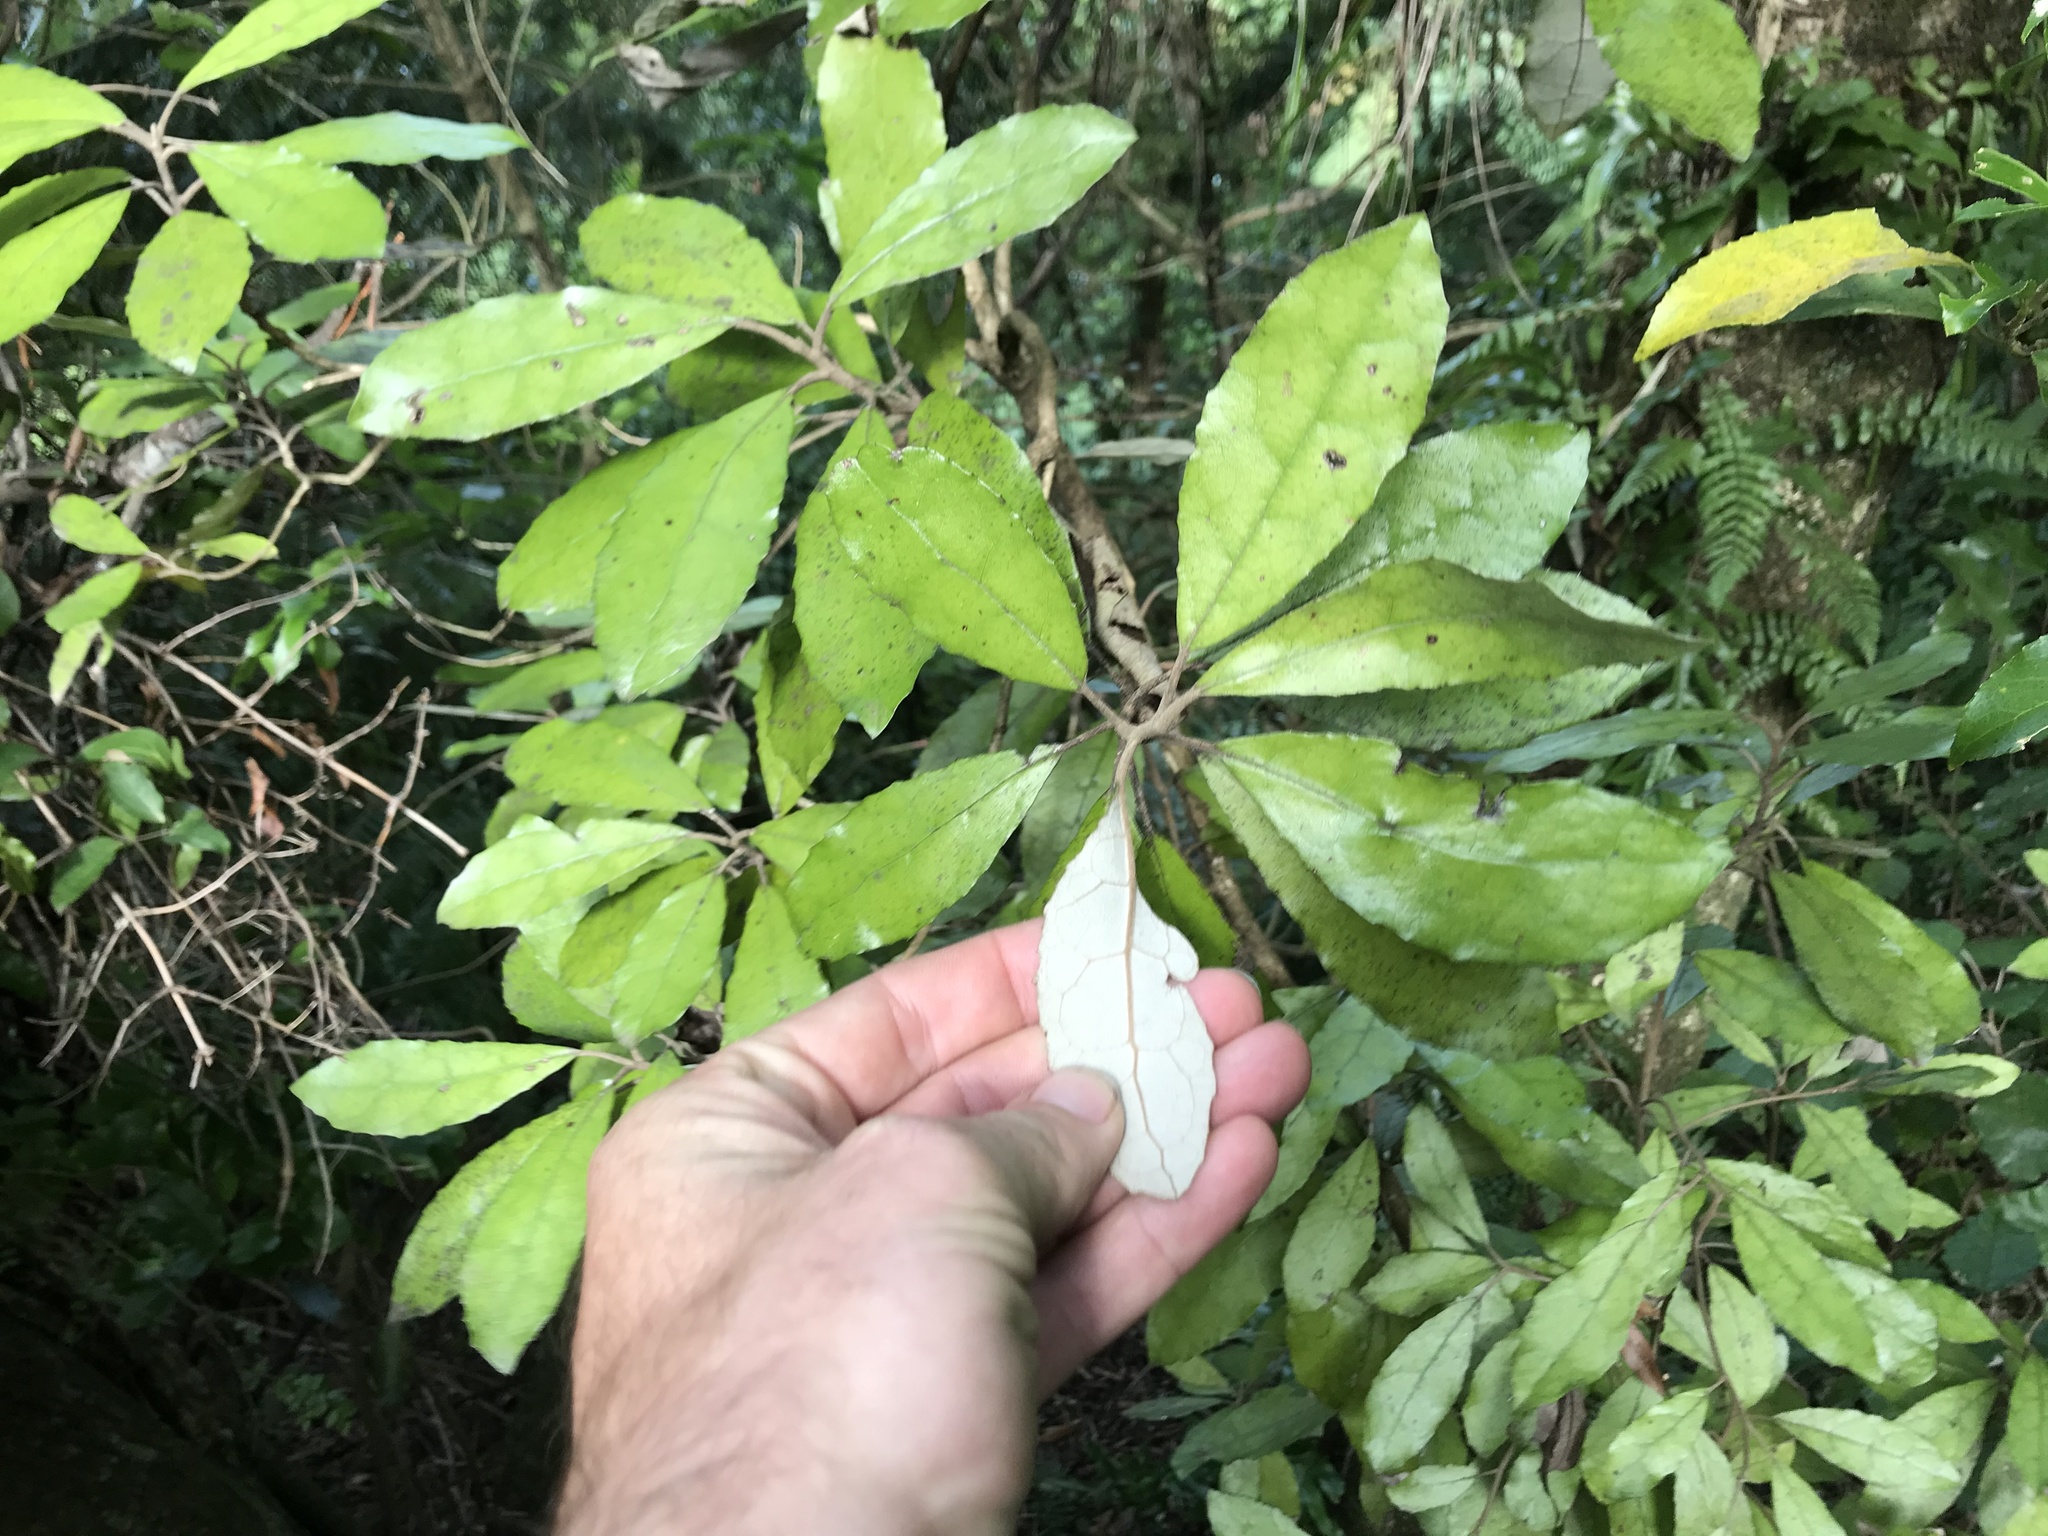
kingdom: Plantae
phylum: Tracheophyta
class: Magnoliopsida
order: Asterales
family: Asteraceae
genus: Olearia
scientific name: Olearia rani
